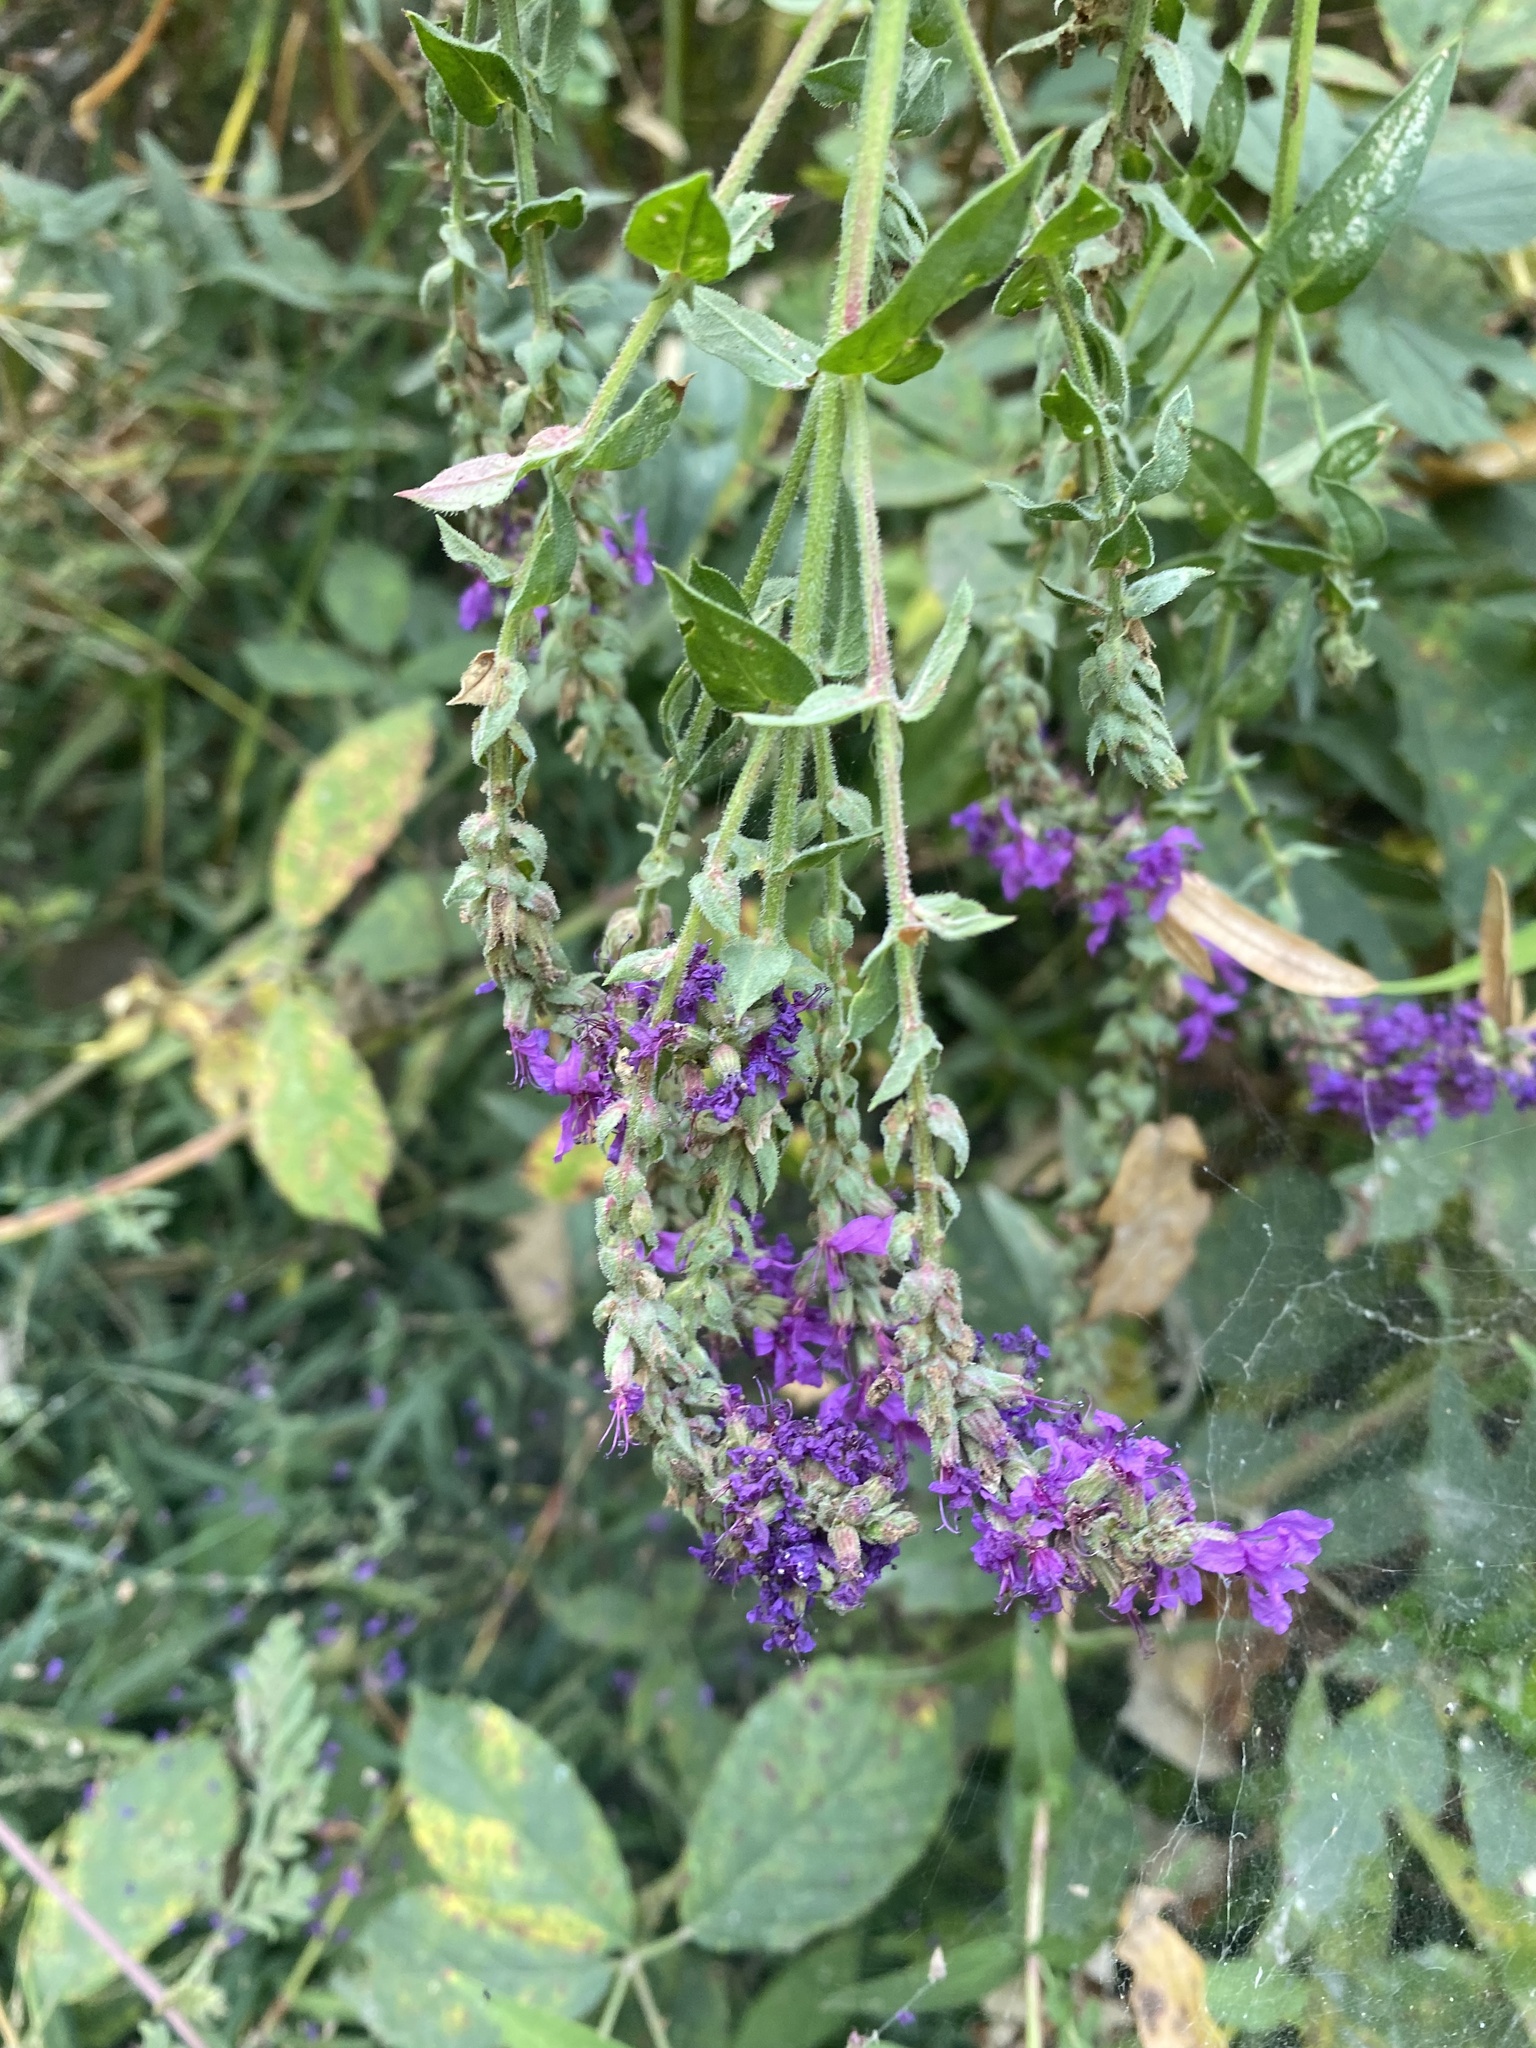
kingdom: Plantae
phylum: Tracheophyta
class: Magnoliopsida
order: Myrtales
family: Lythraceae
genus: Lythrum
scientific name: Lythrum salicaria
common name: Purple loosestrife
